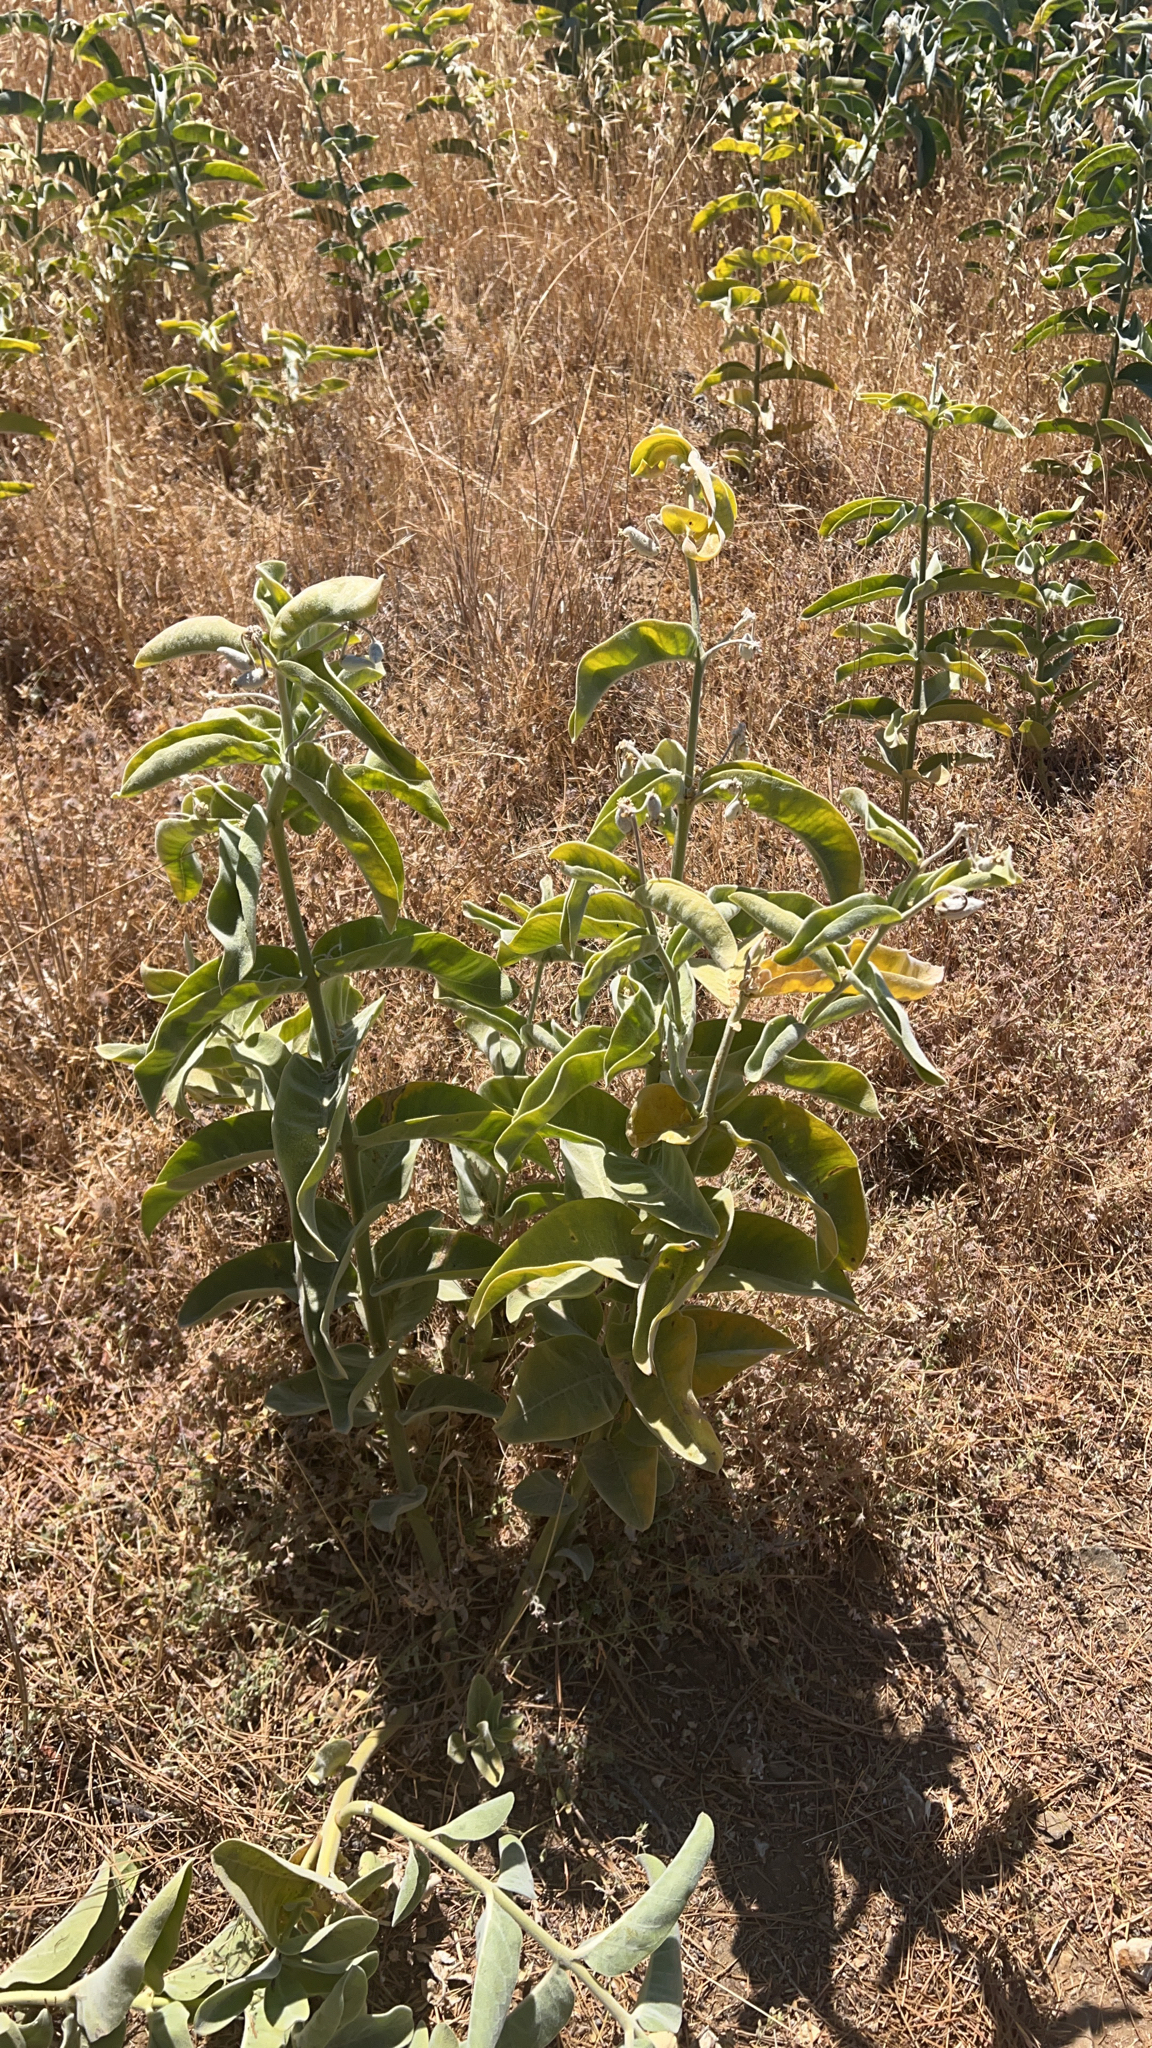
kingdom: Plantae
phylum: Tracheophyta
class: Magnoliopsida
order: Gentianales
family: Apocynaceae
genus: Asclepias
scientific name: Asclepias eriocarpa
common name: Indian milkweed
